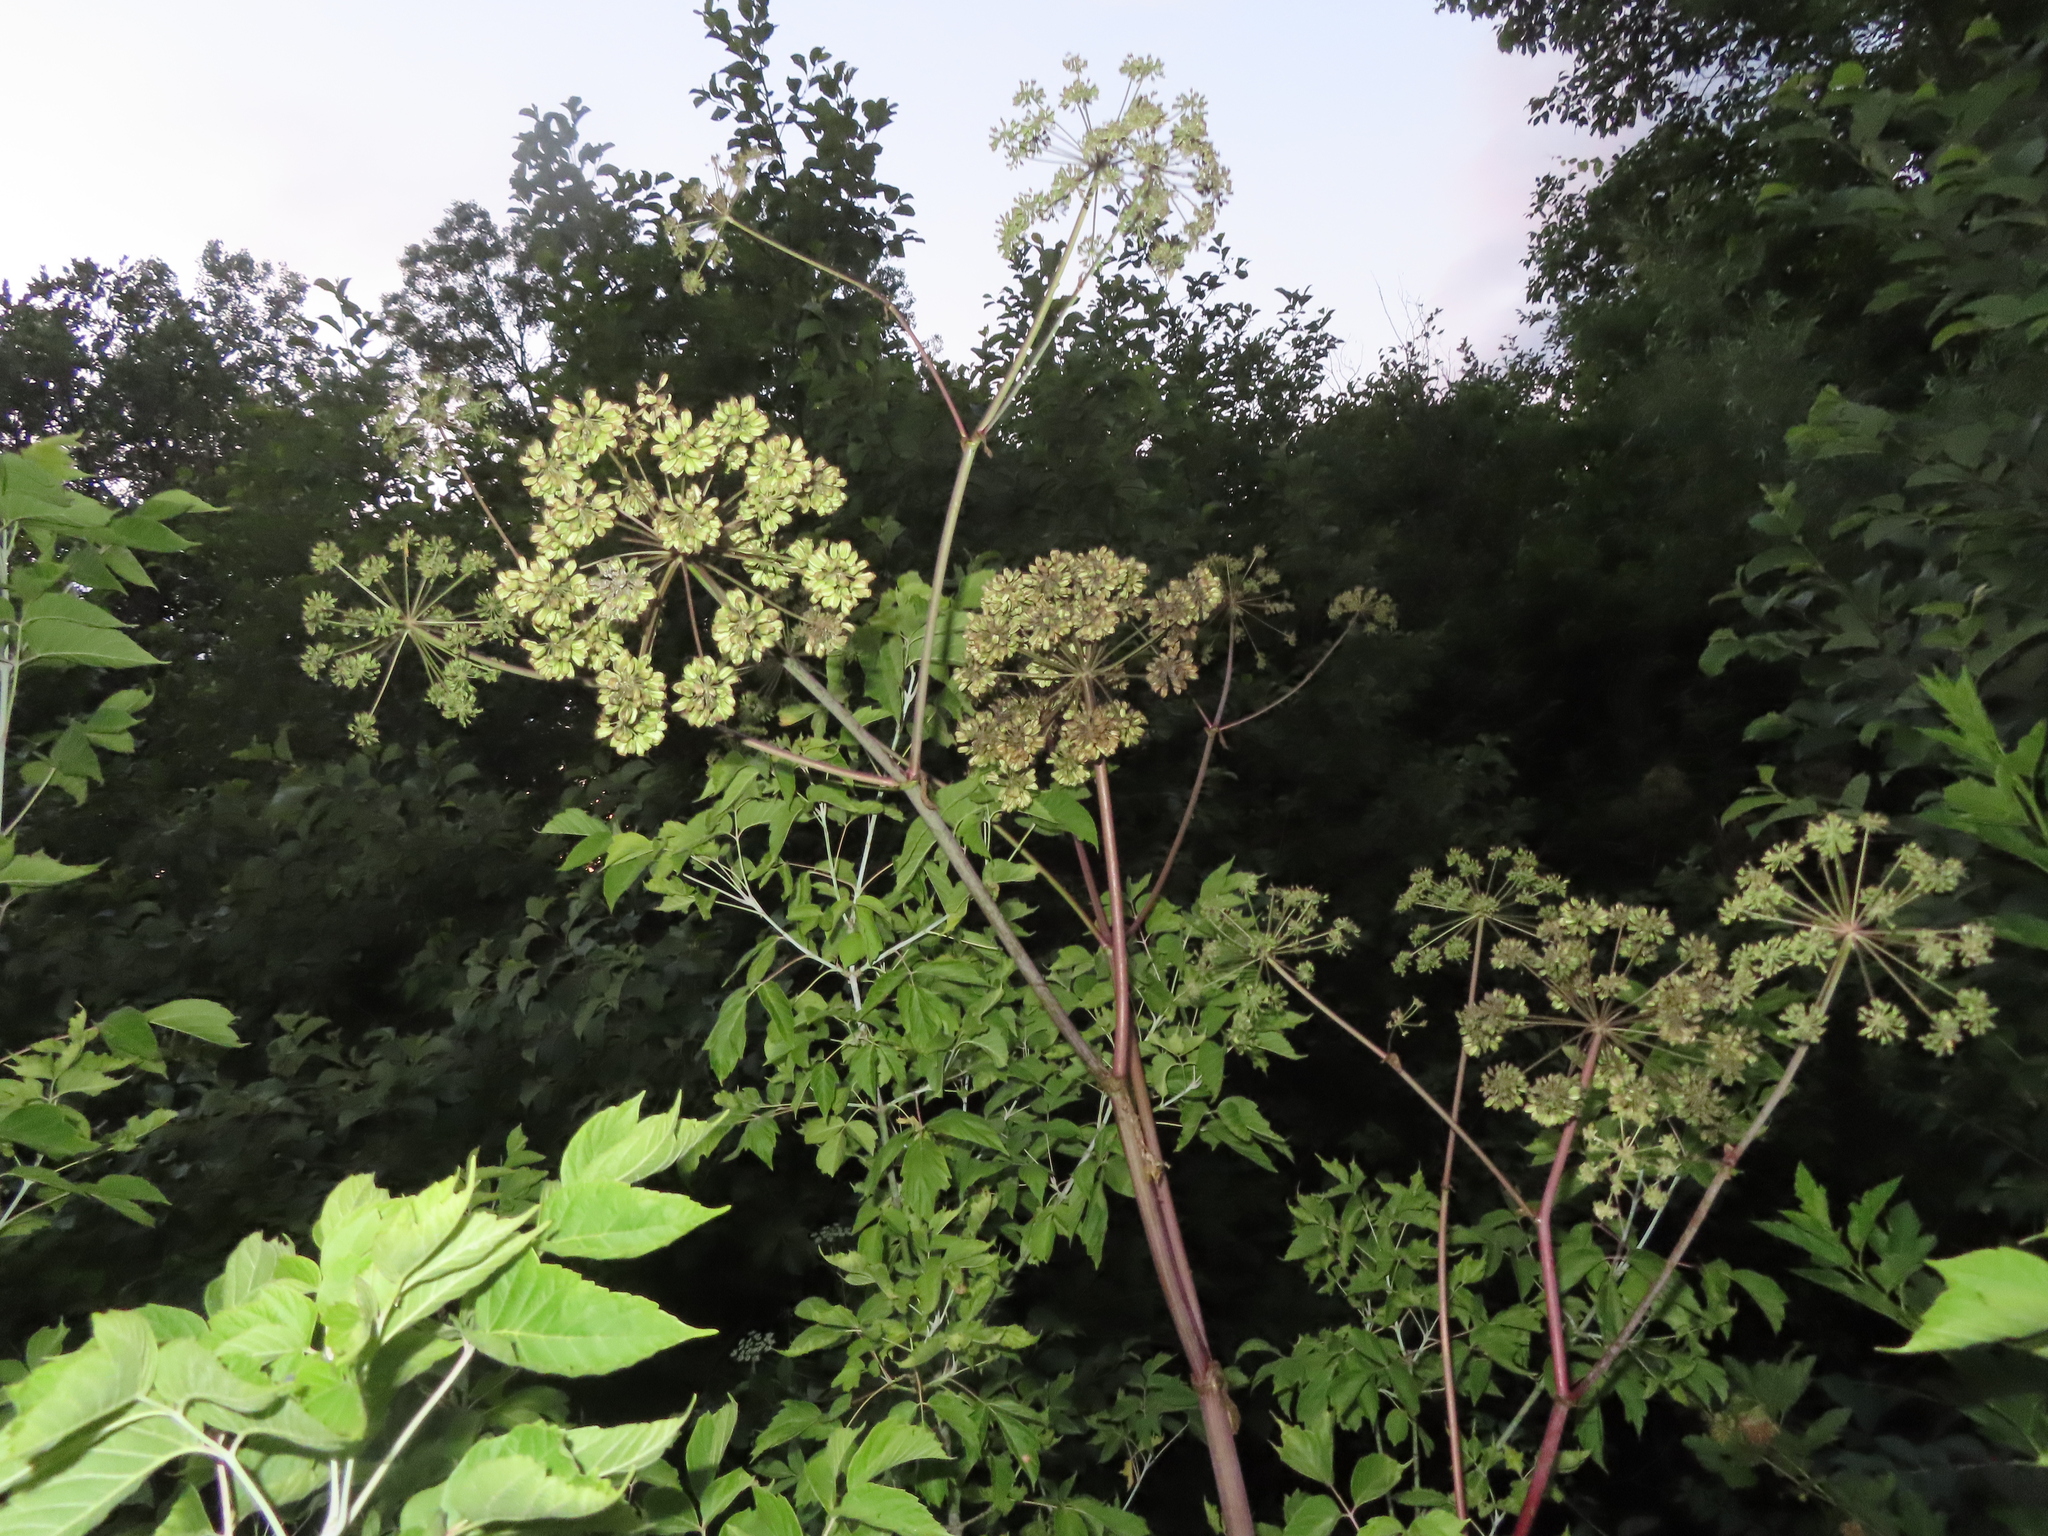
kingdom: Plantae
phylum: Tracheophyta
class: Magnoliopsida
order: Apiales
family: Apiaceae
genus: Angelica
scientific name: Angelica atropurpurea
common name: Great angelica
